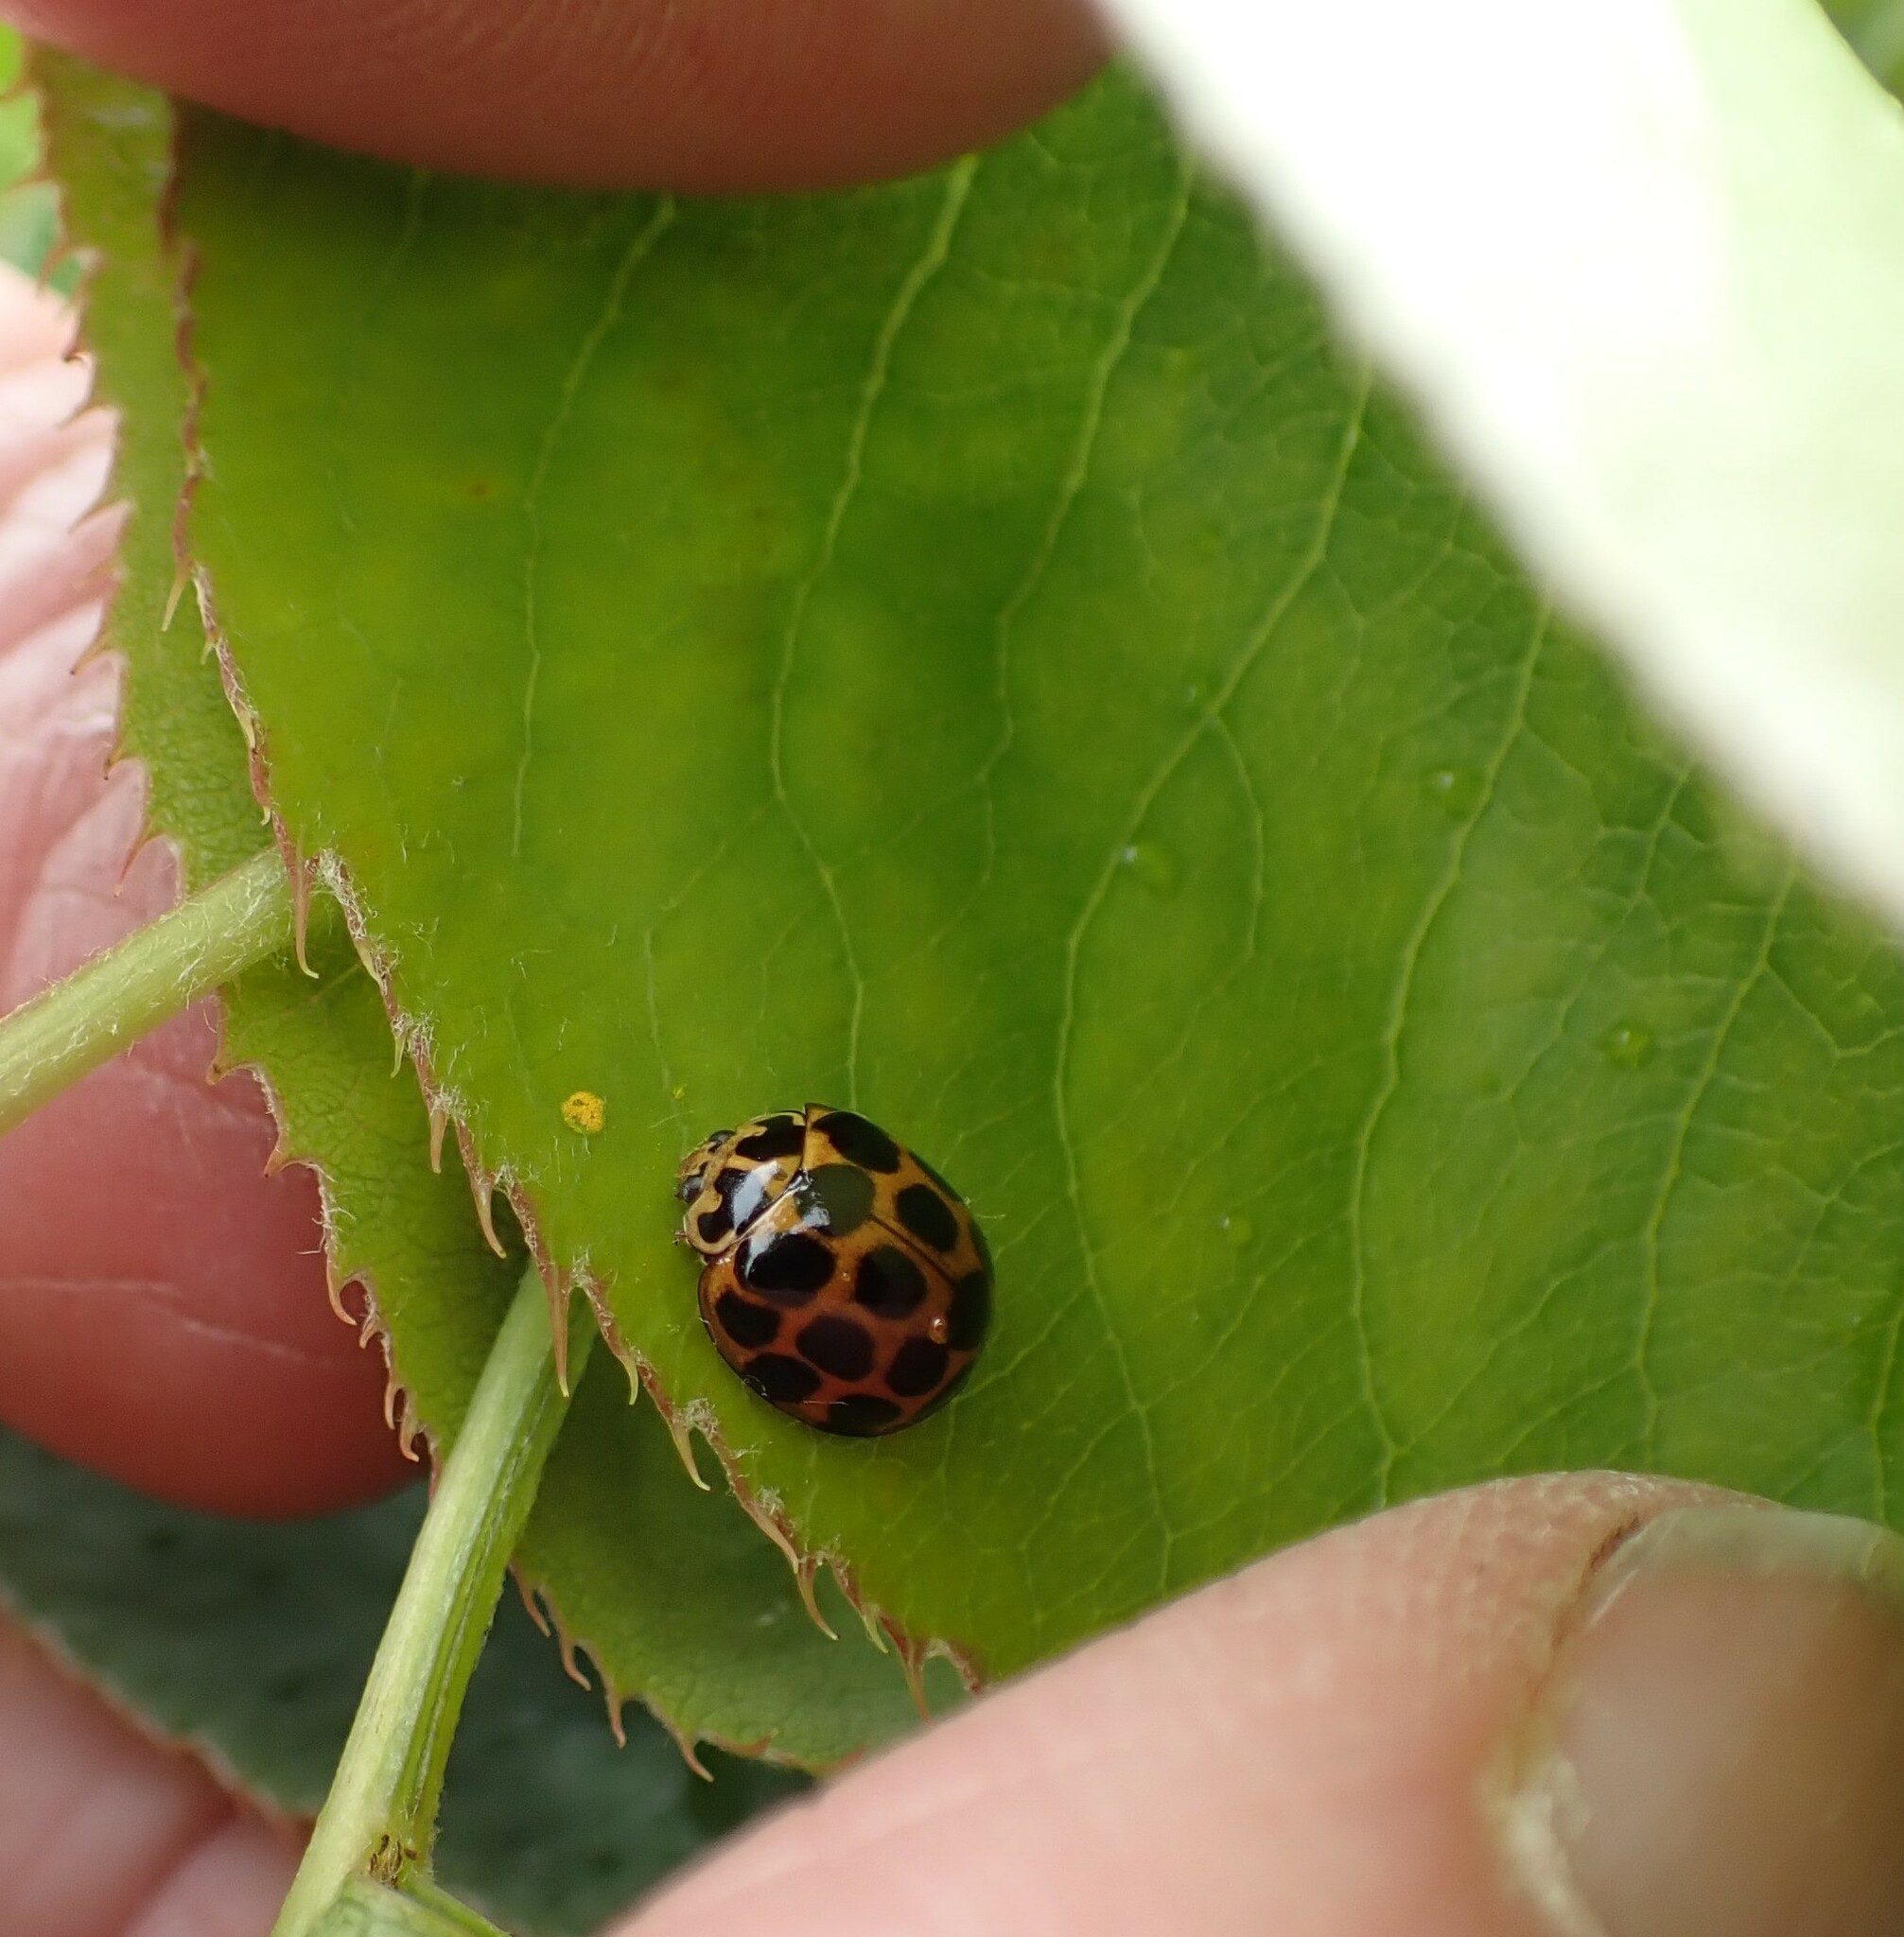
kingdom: Animalia
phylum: Arthropoda
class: Insecta
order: Coleoptera
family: Coccinellidae
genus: Harmonia
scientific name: Harmonia conformis
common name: Common spotted ladybird beetle
